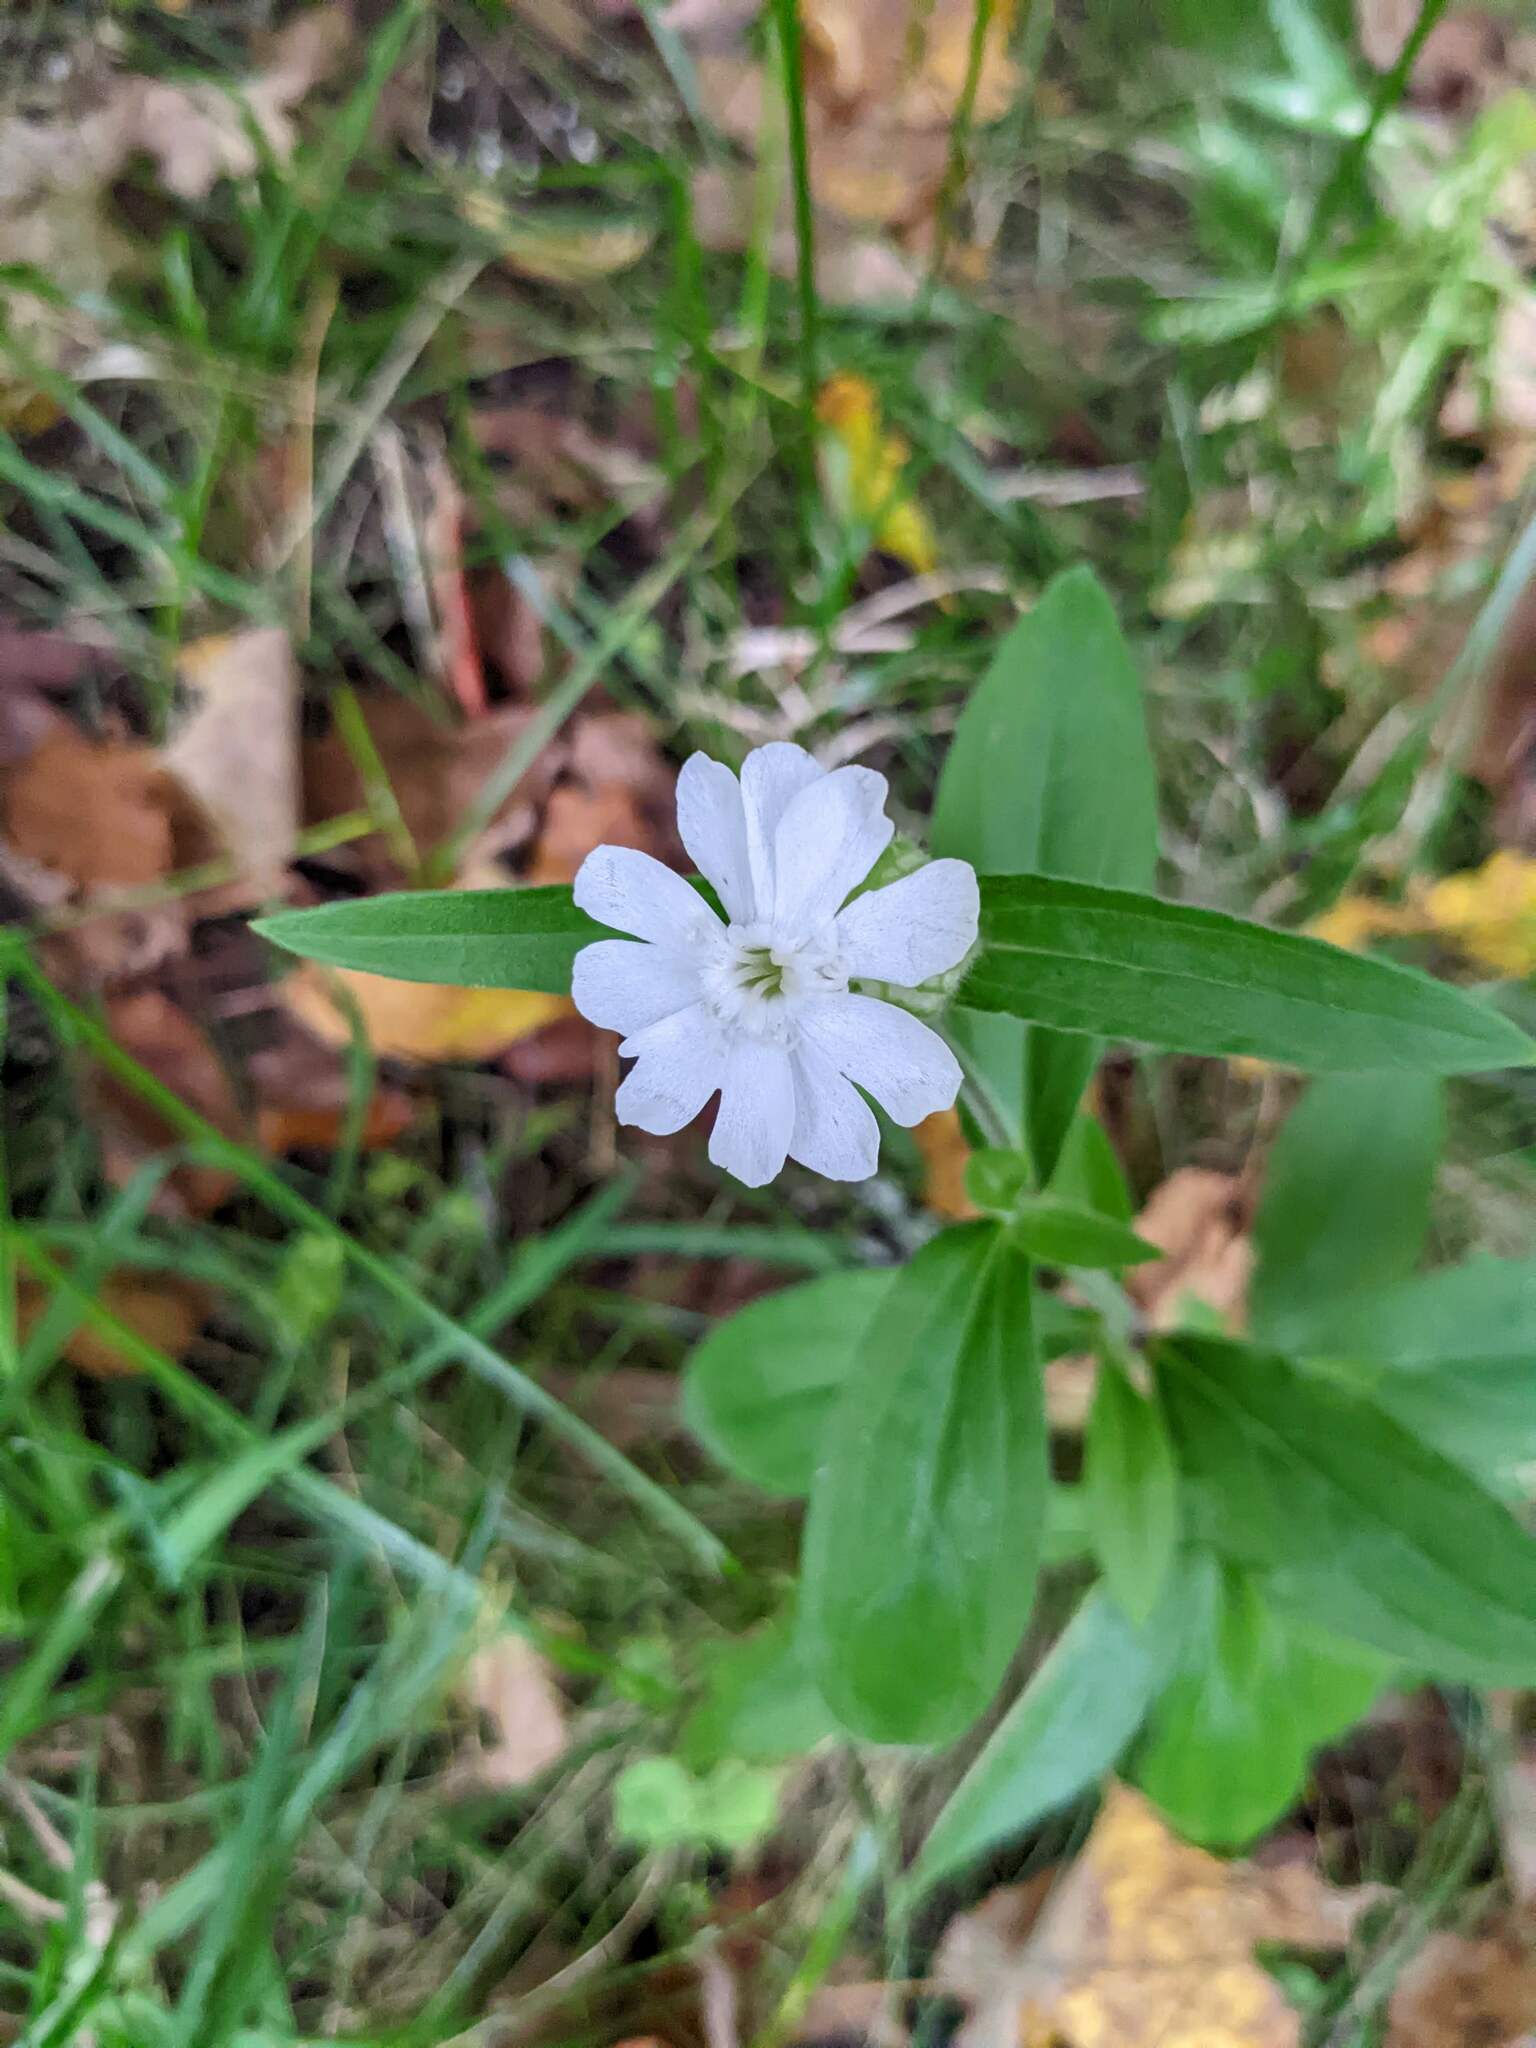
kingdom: Plantae
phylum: Tracheophyta
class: Magnoliopsida
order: Caryophyllales
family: Caryophyllaceae
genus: Silene
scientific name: Silene latifolia
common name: White campion
